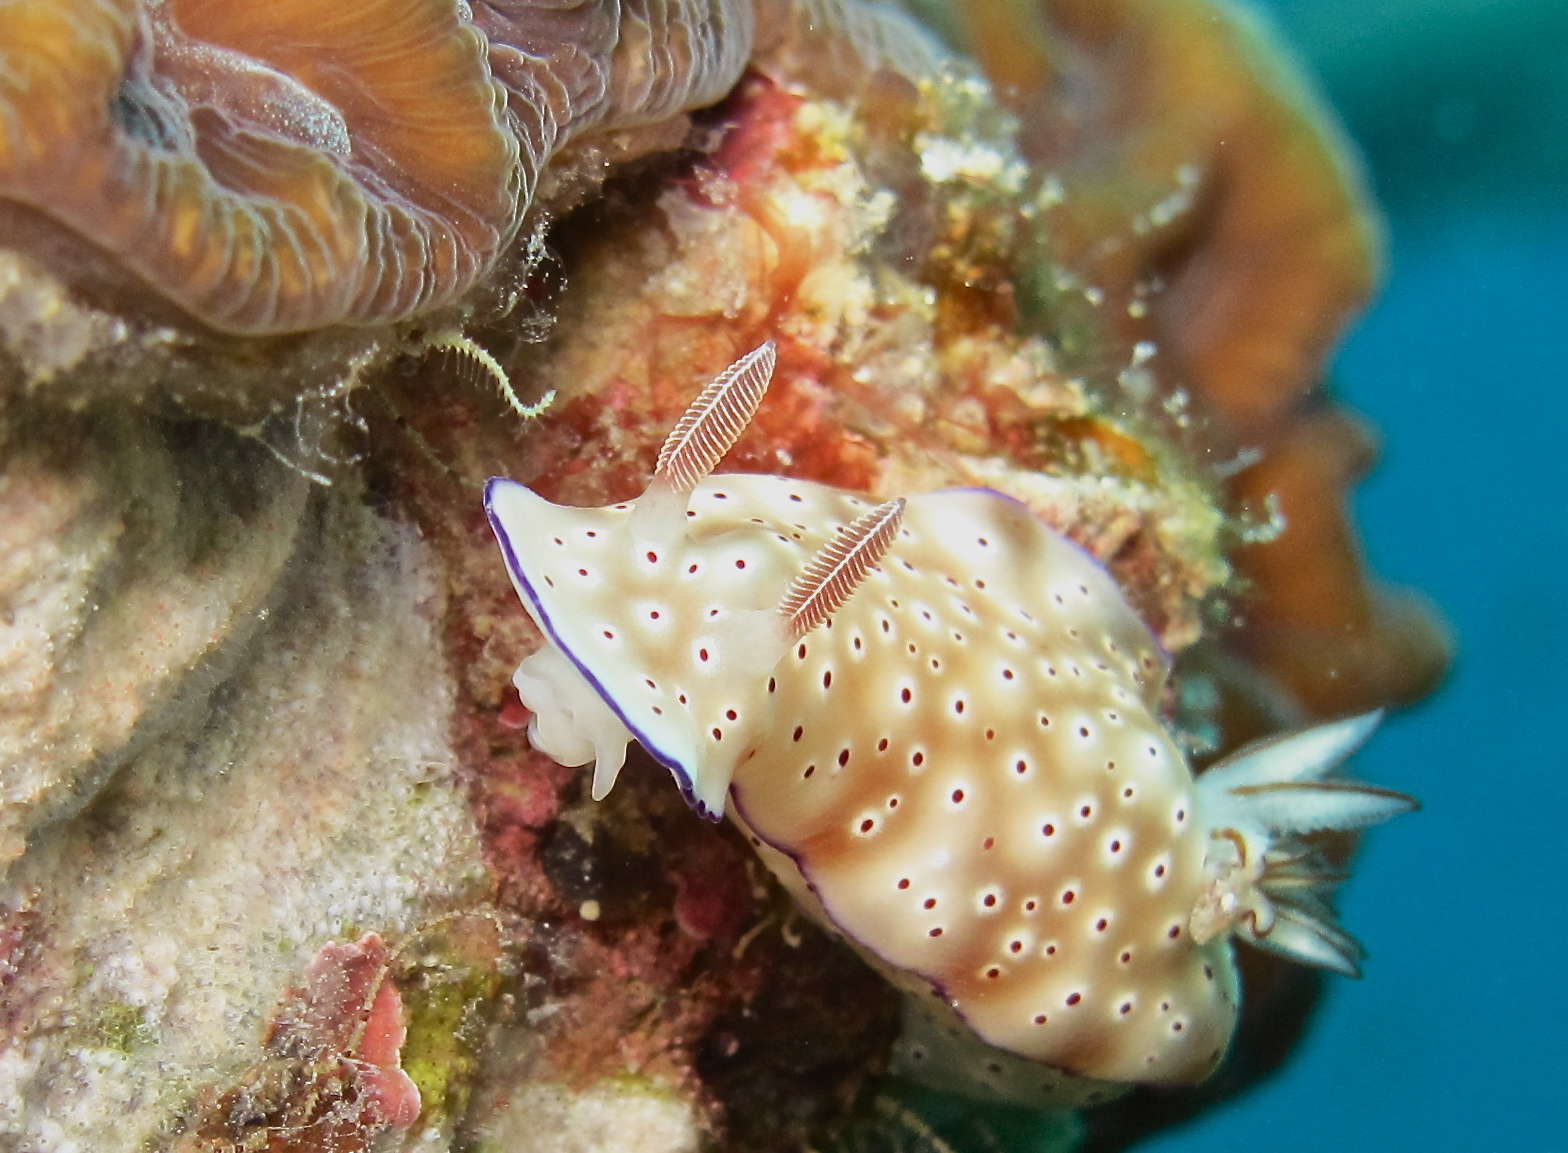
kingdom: Animalia
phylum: Mollusca
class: Gastropoda
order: Nudibranchia
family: Chromodorididae
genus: Hypselodoris
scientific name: Hypselodoris tryoni
